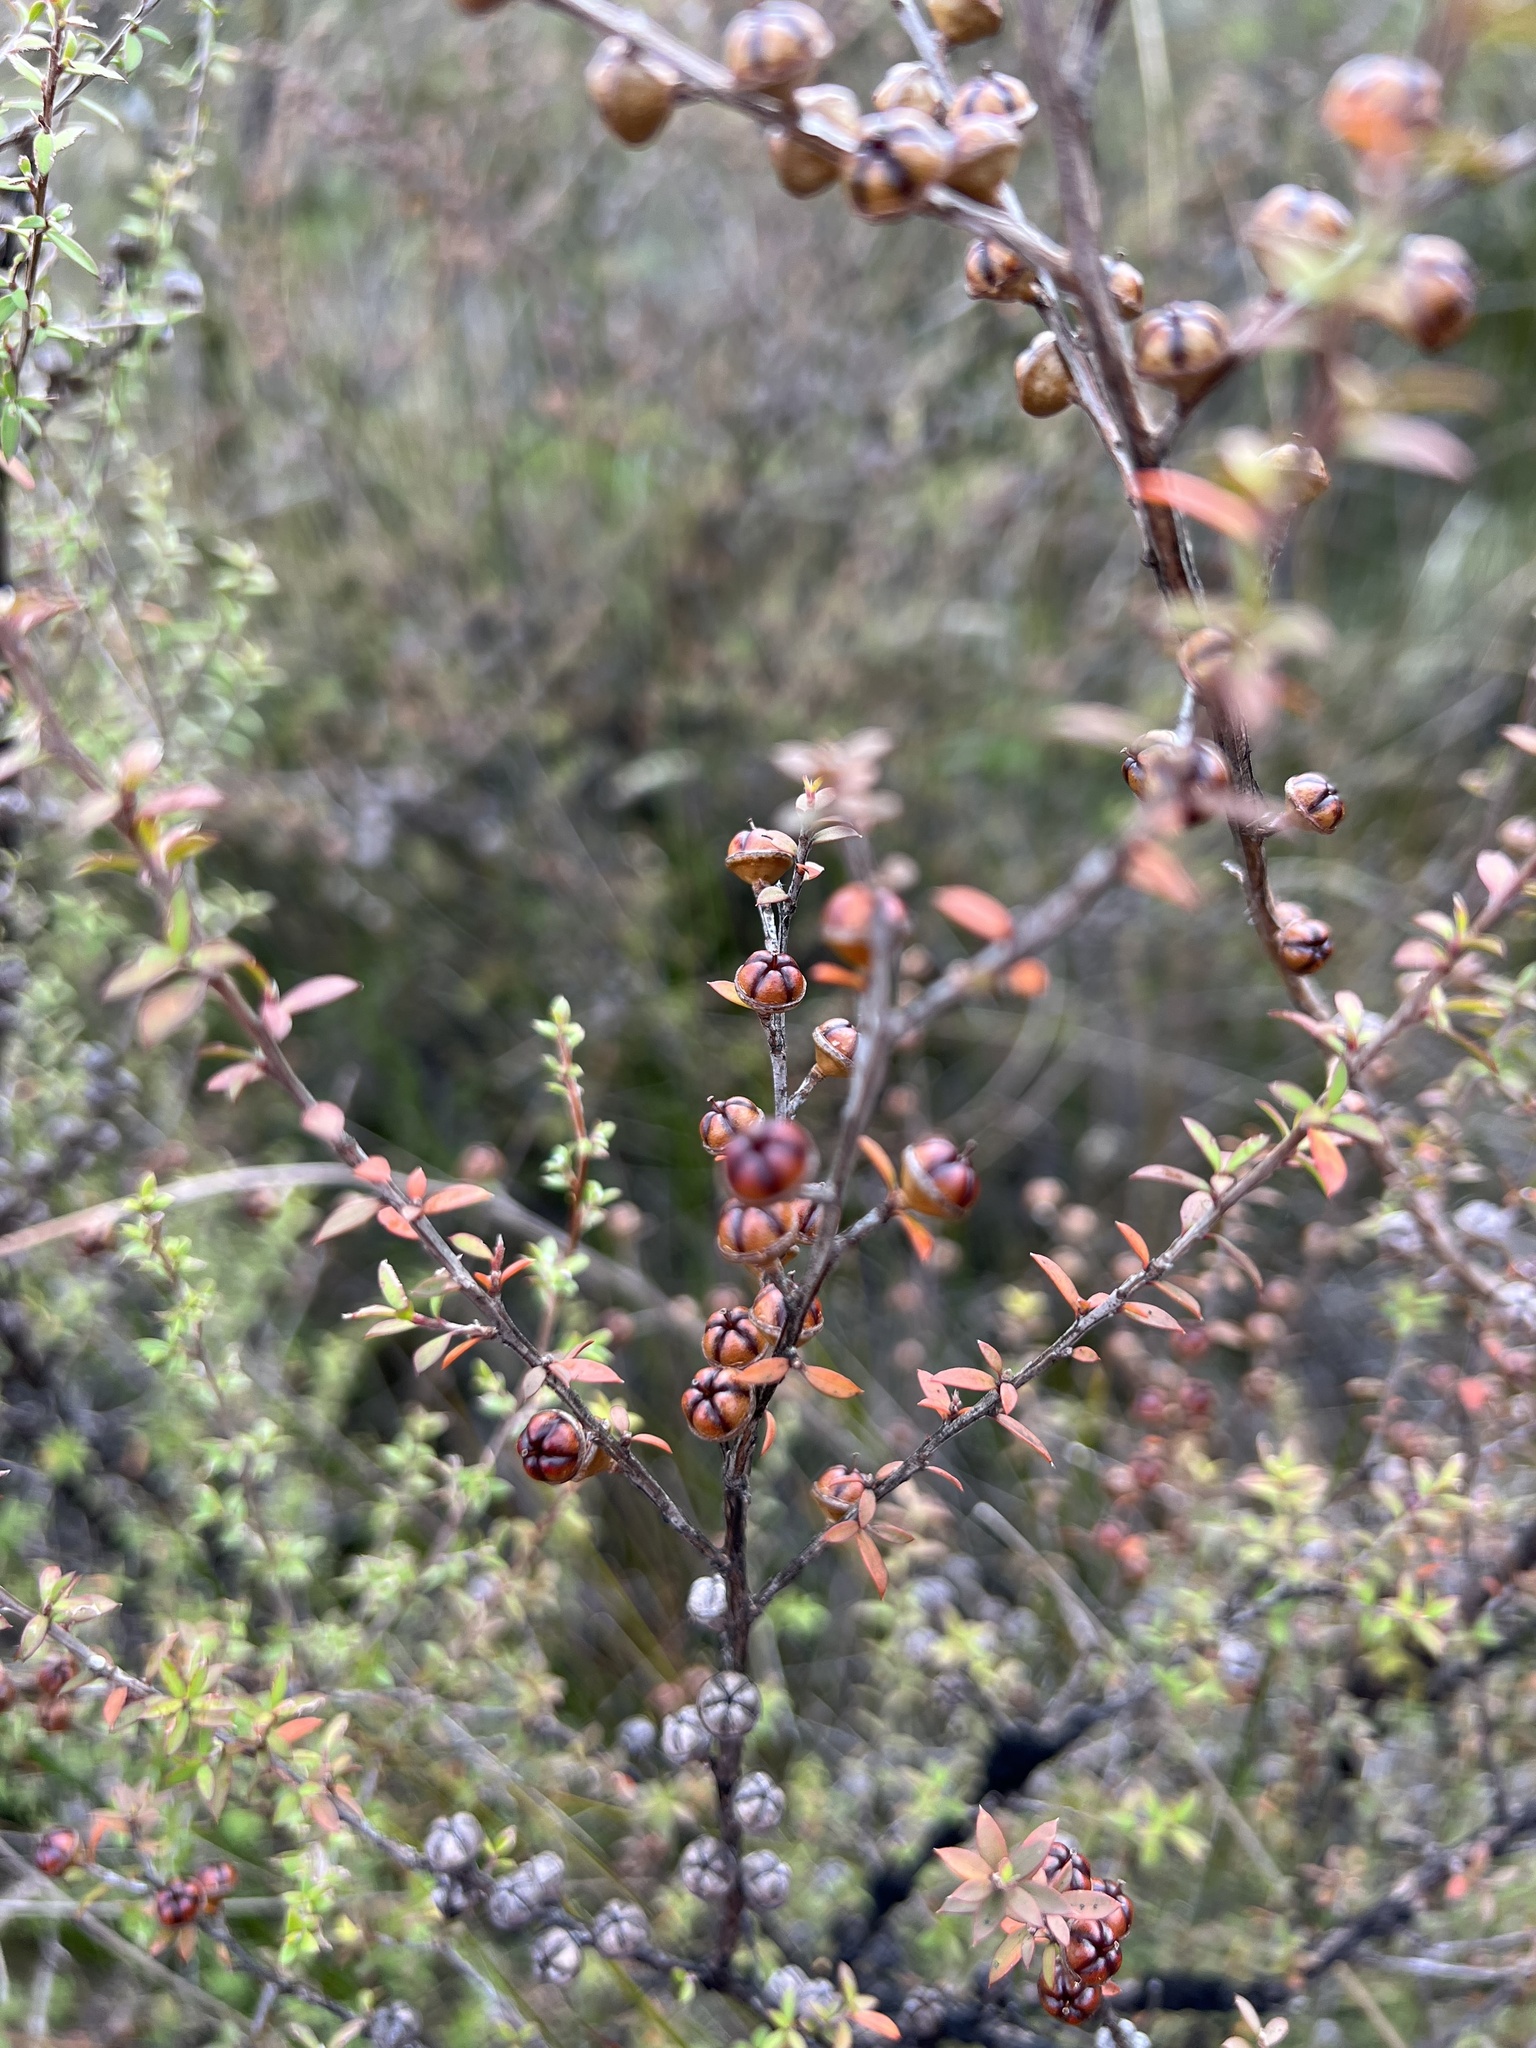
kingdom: Plantae
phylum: Tracheophyta
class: Magnoliopsida
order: Myrtales
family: Myrtaceae
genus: Leptospermum
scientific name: Leptospermum scoparium
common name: Broom tea-tree
